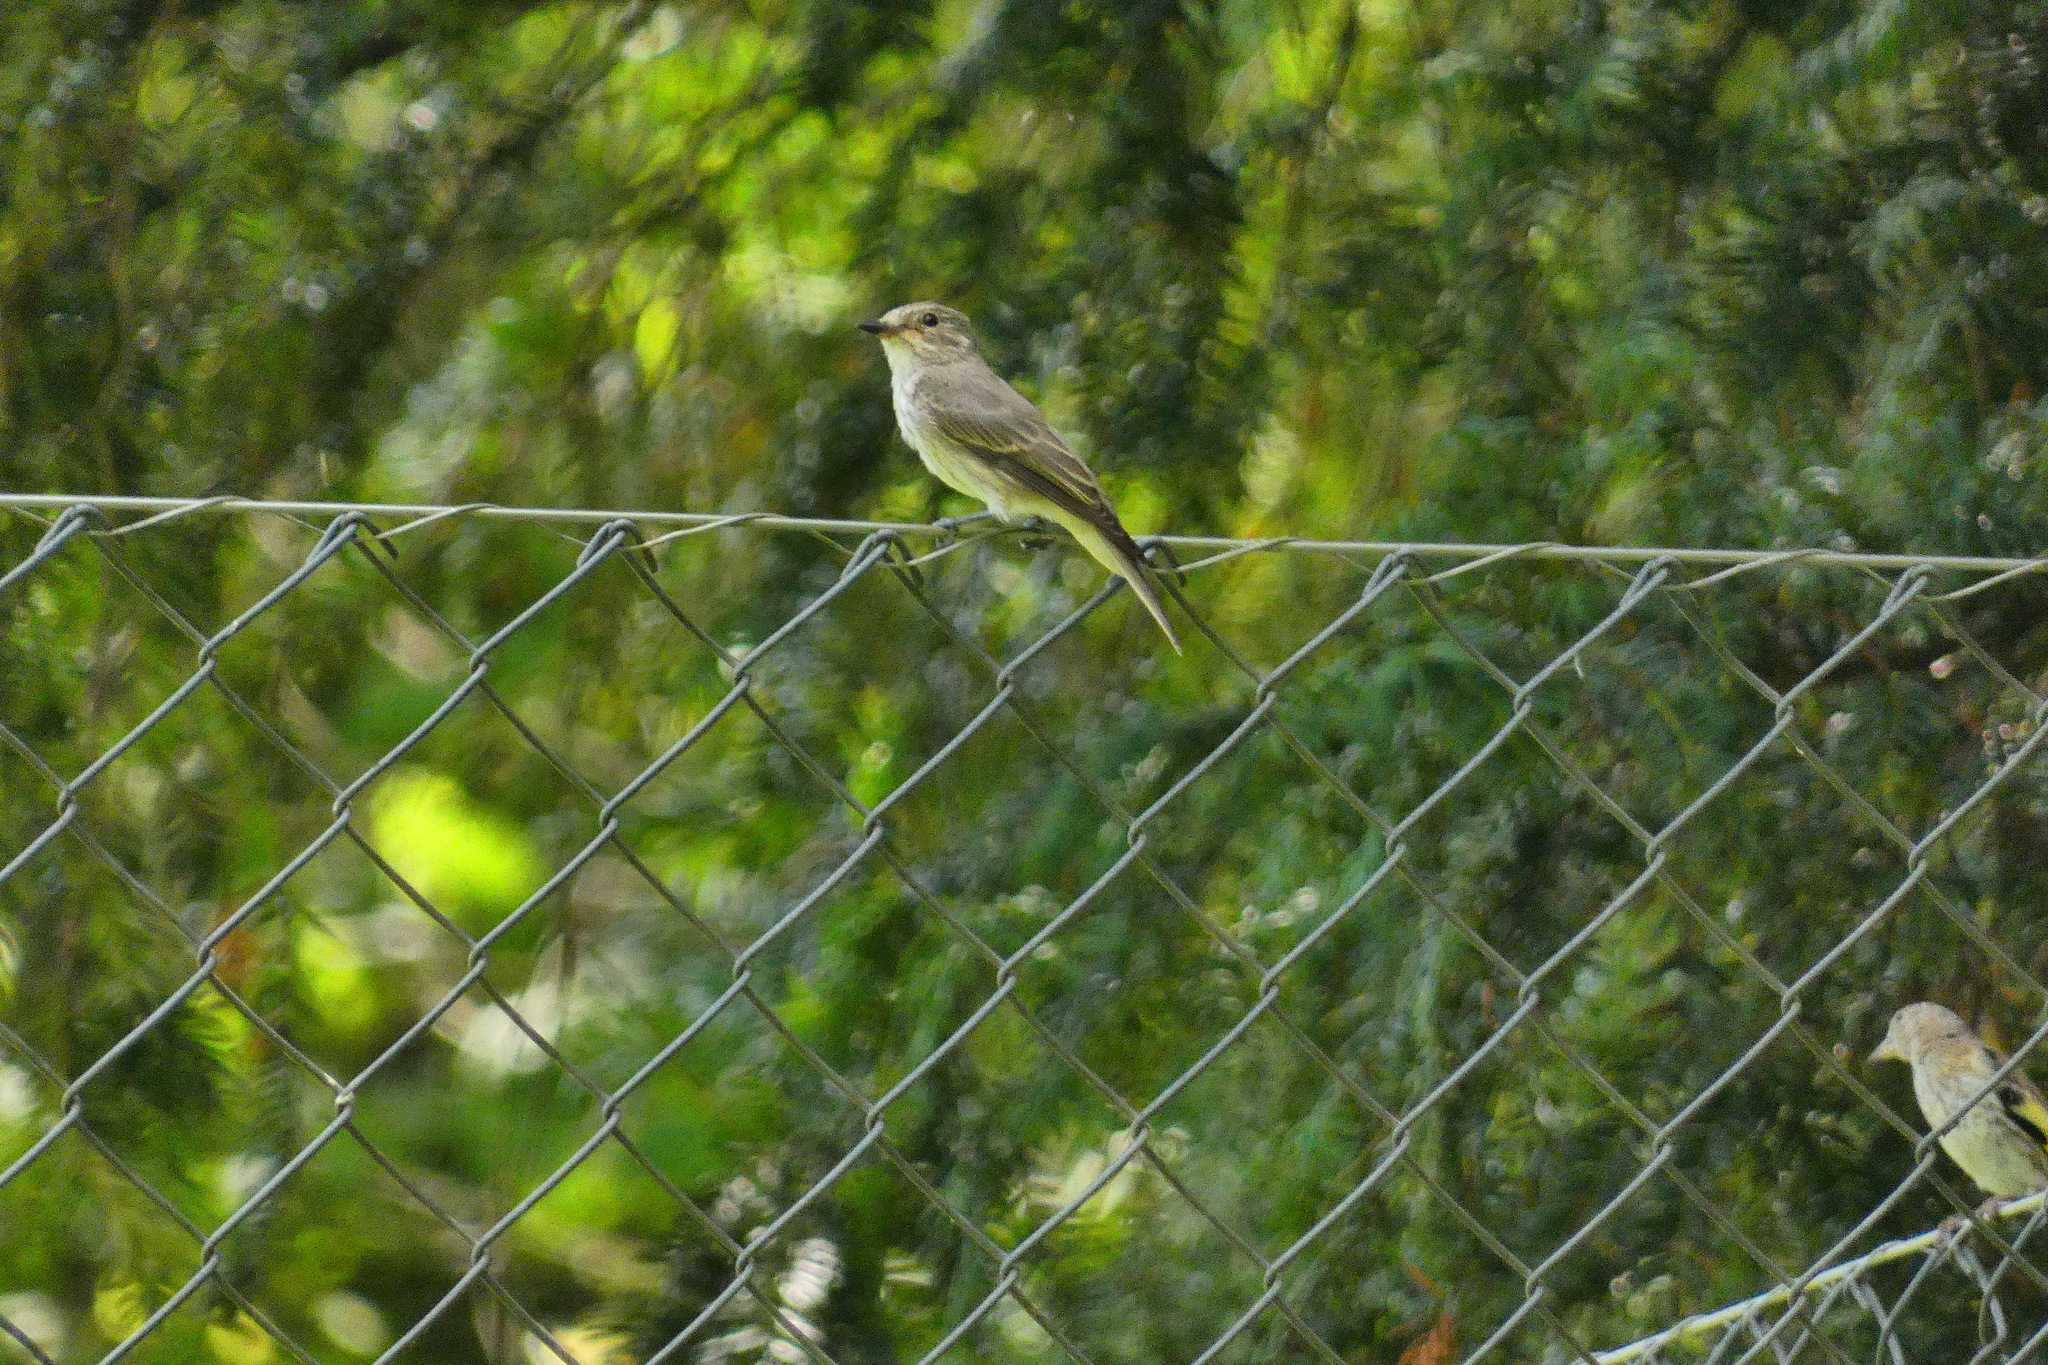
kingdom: Animalia
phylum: Chordata
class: Aves
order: Passeriformes
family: Muscicapidae
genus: Muscicapa
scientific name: Muscicapa striata
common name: Spotted flycatcher
